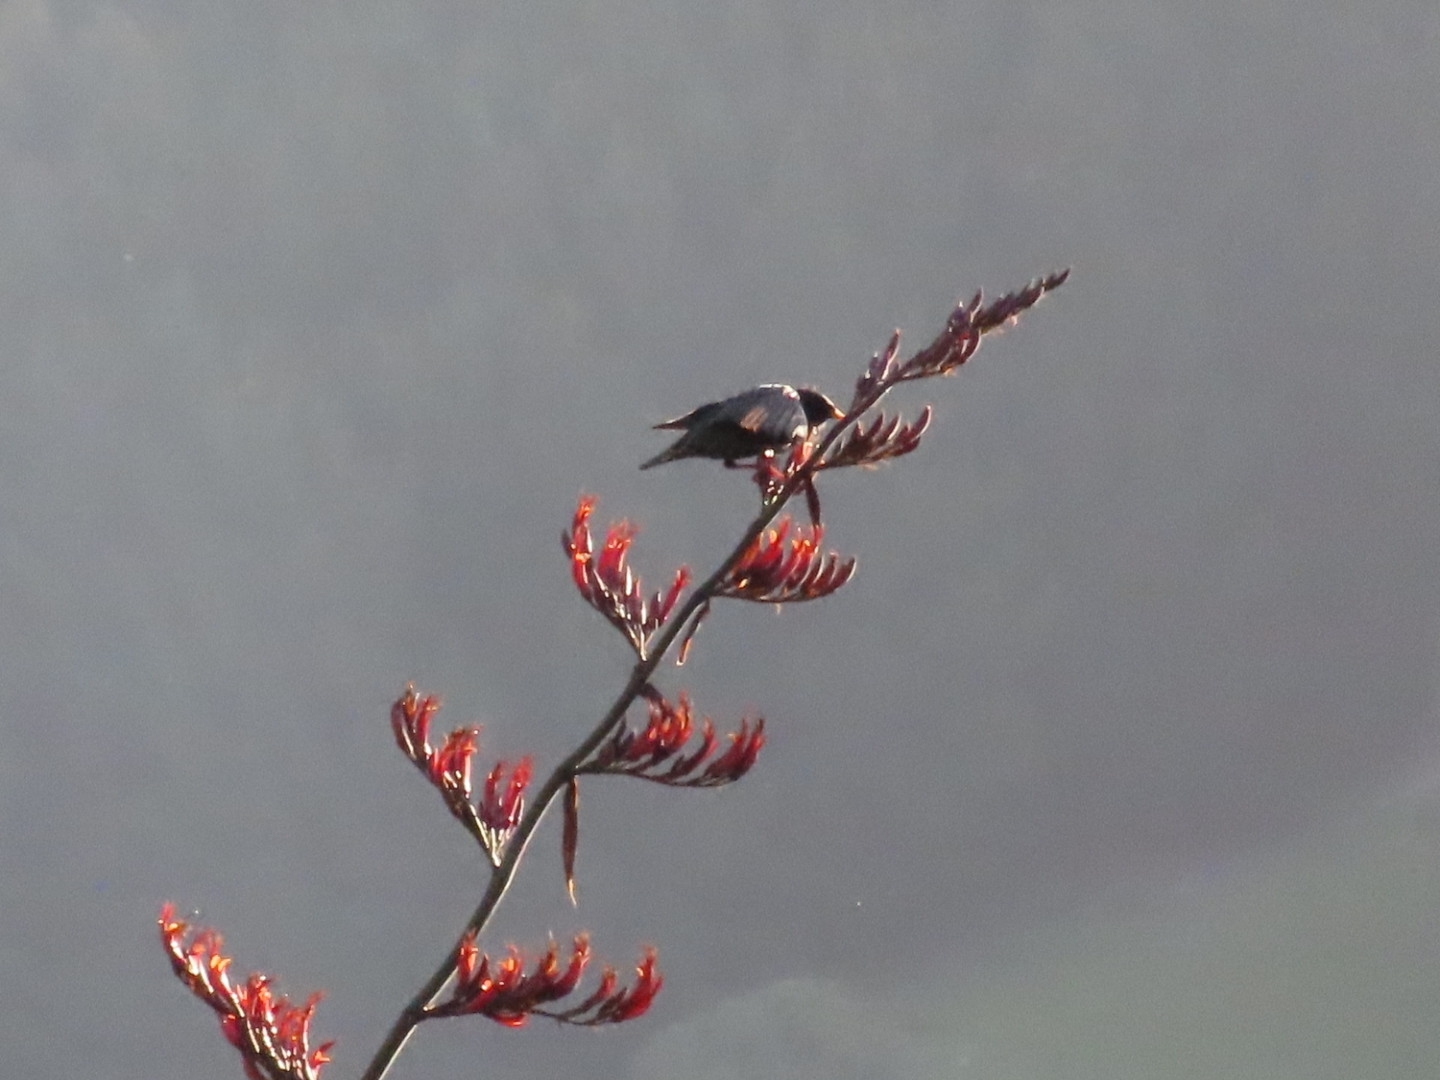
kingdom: Animalia
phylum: Chordata
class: Aves
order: Passeriformes
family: Sturnidae
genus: Sturnus
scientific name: Sturnus vulgaris
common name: Common starling
